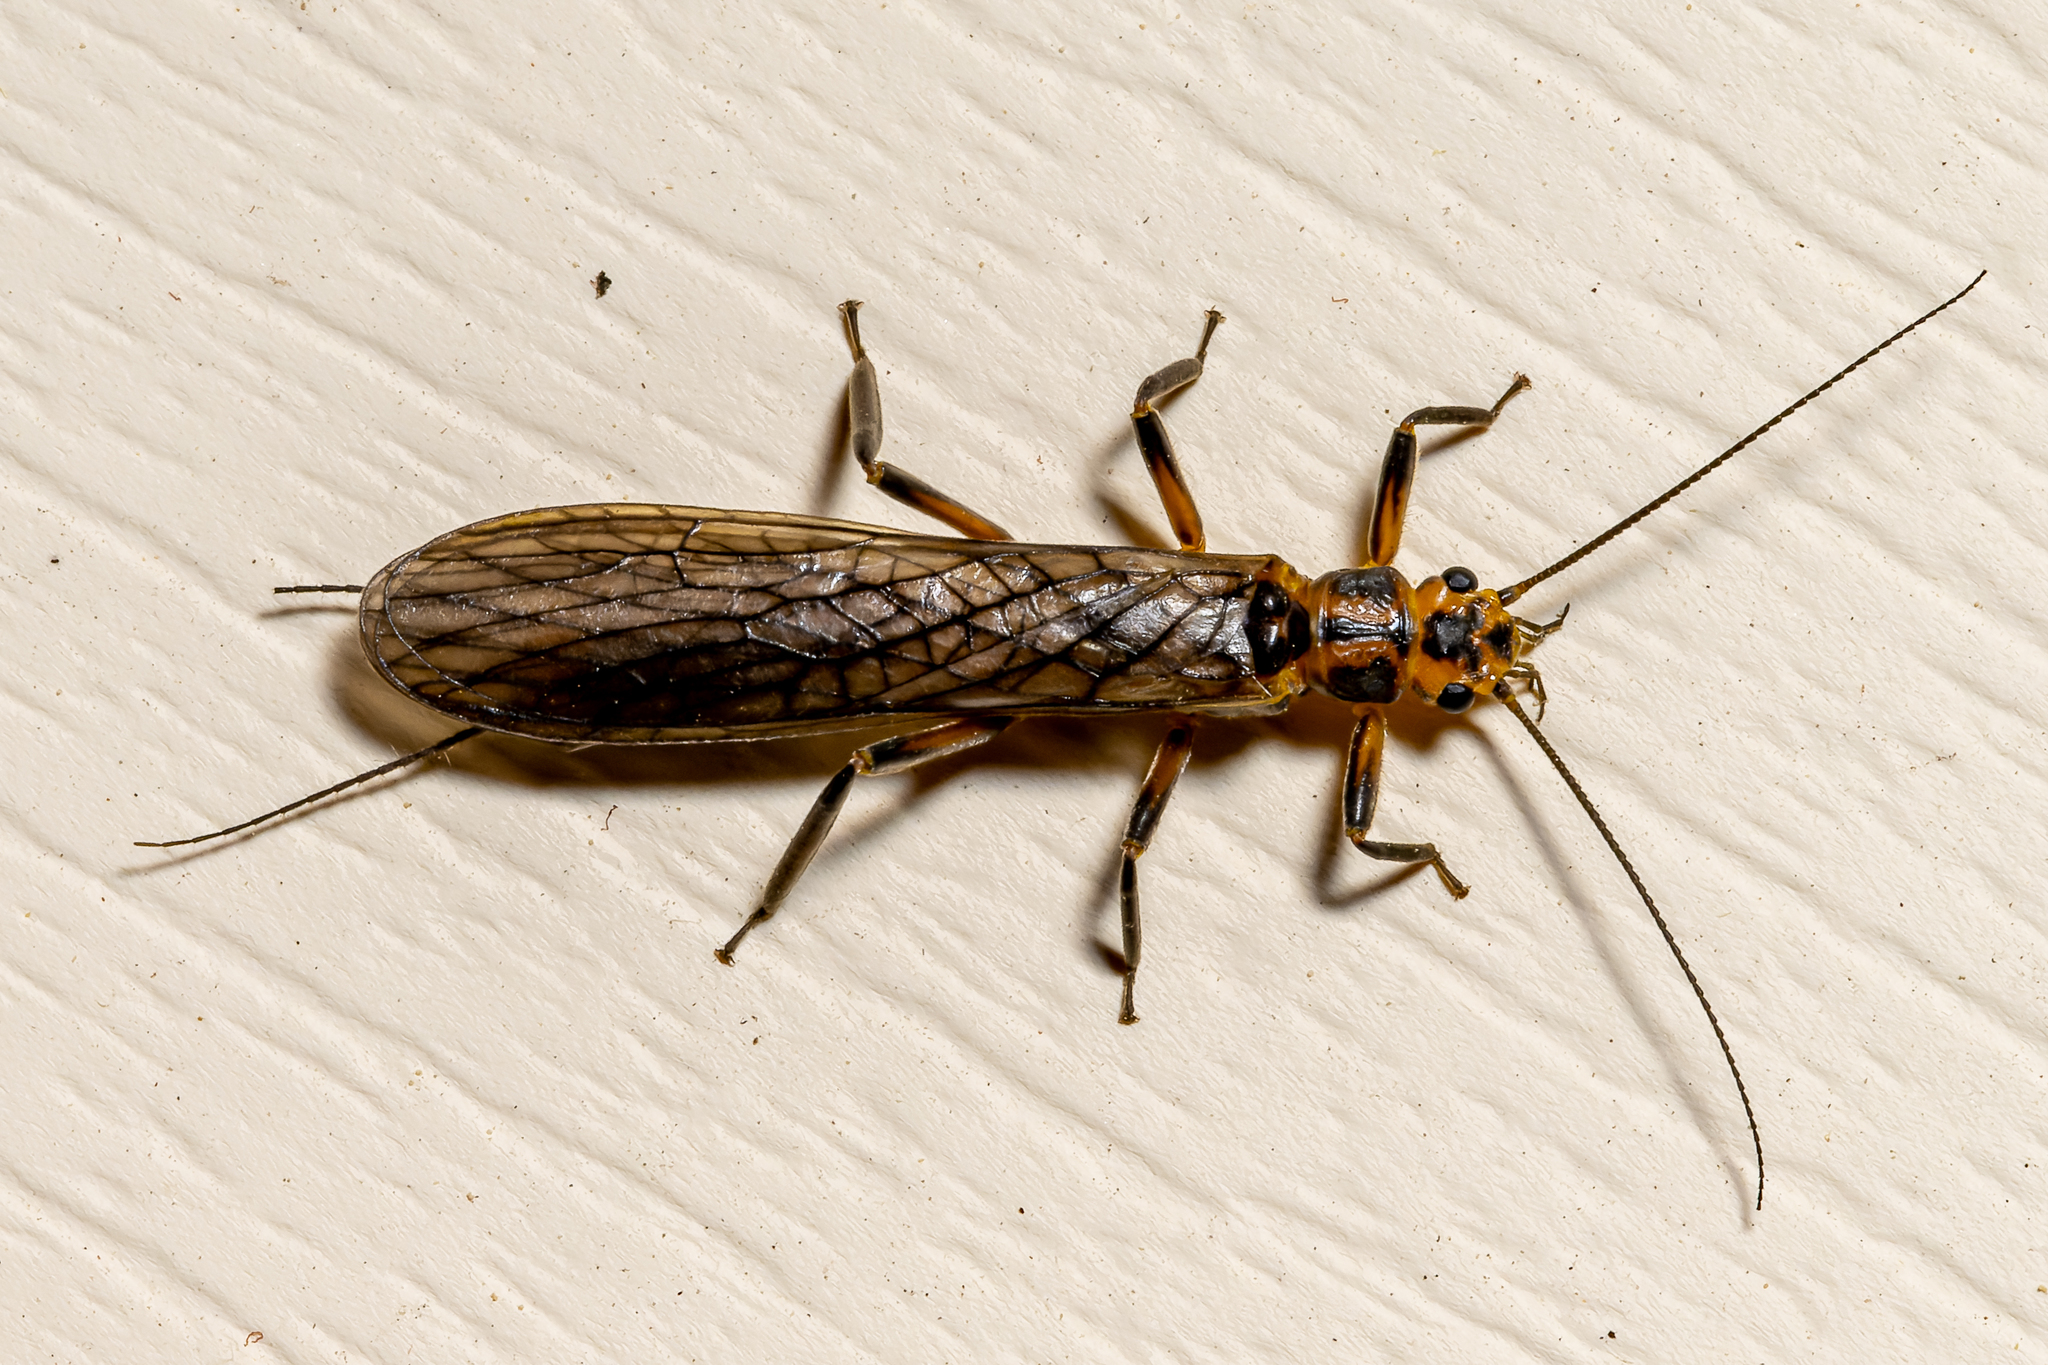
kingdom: Animalia
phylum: Arthropoda
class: Insecta
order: Plecoptera
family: Perlidae
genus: Perlinella
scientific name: Perlinella drymo
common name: Striped stone
